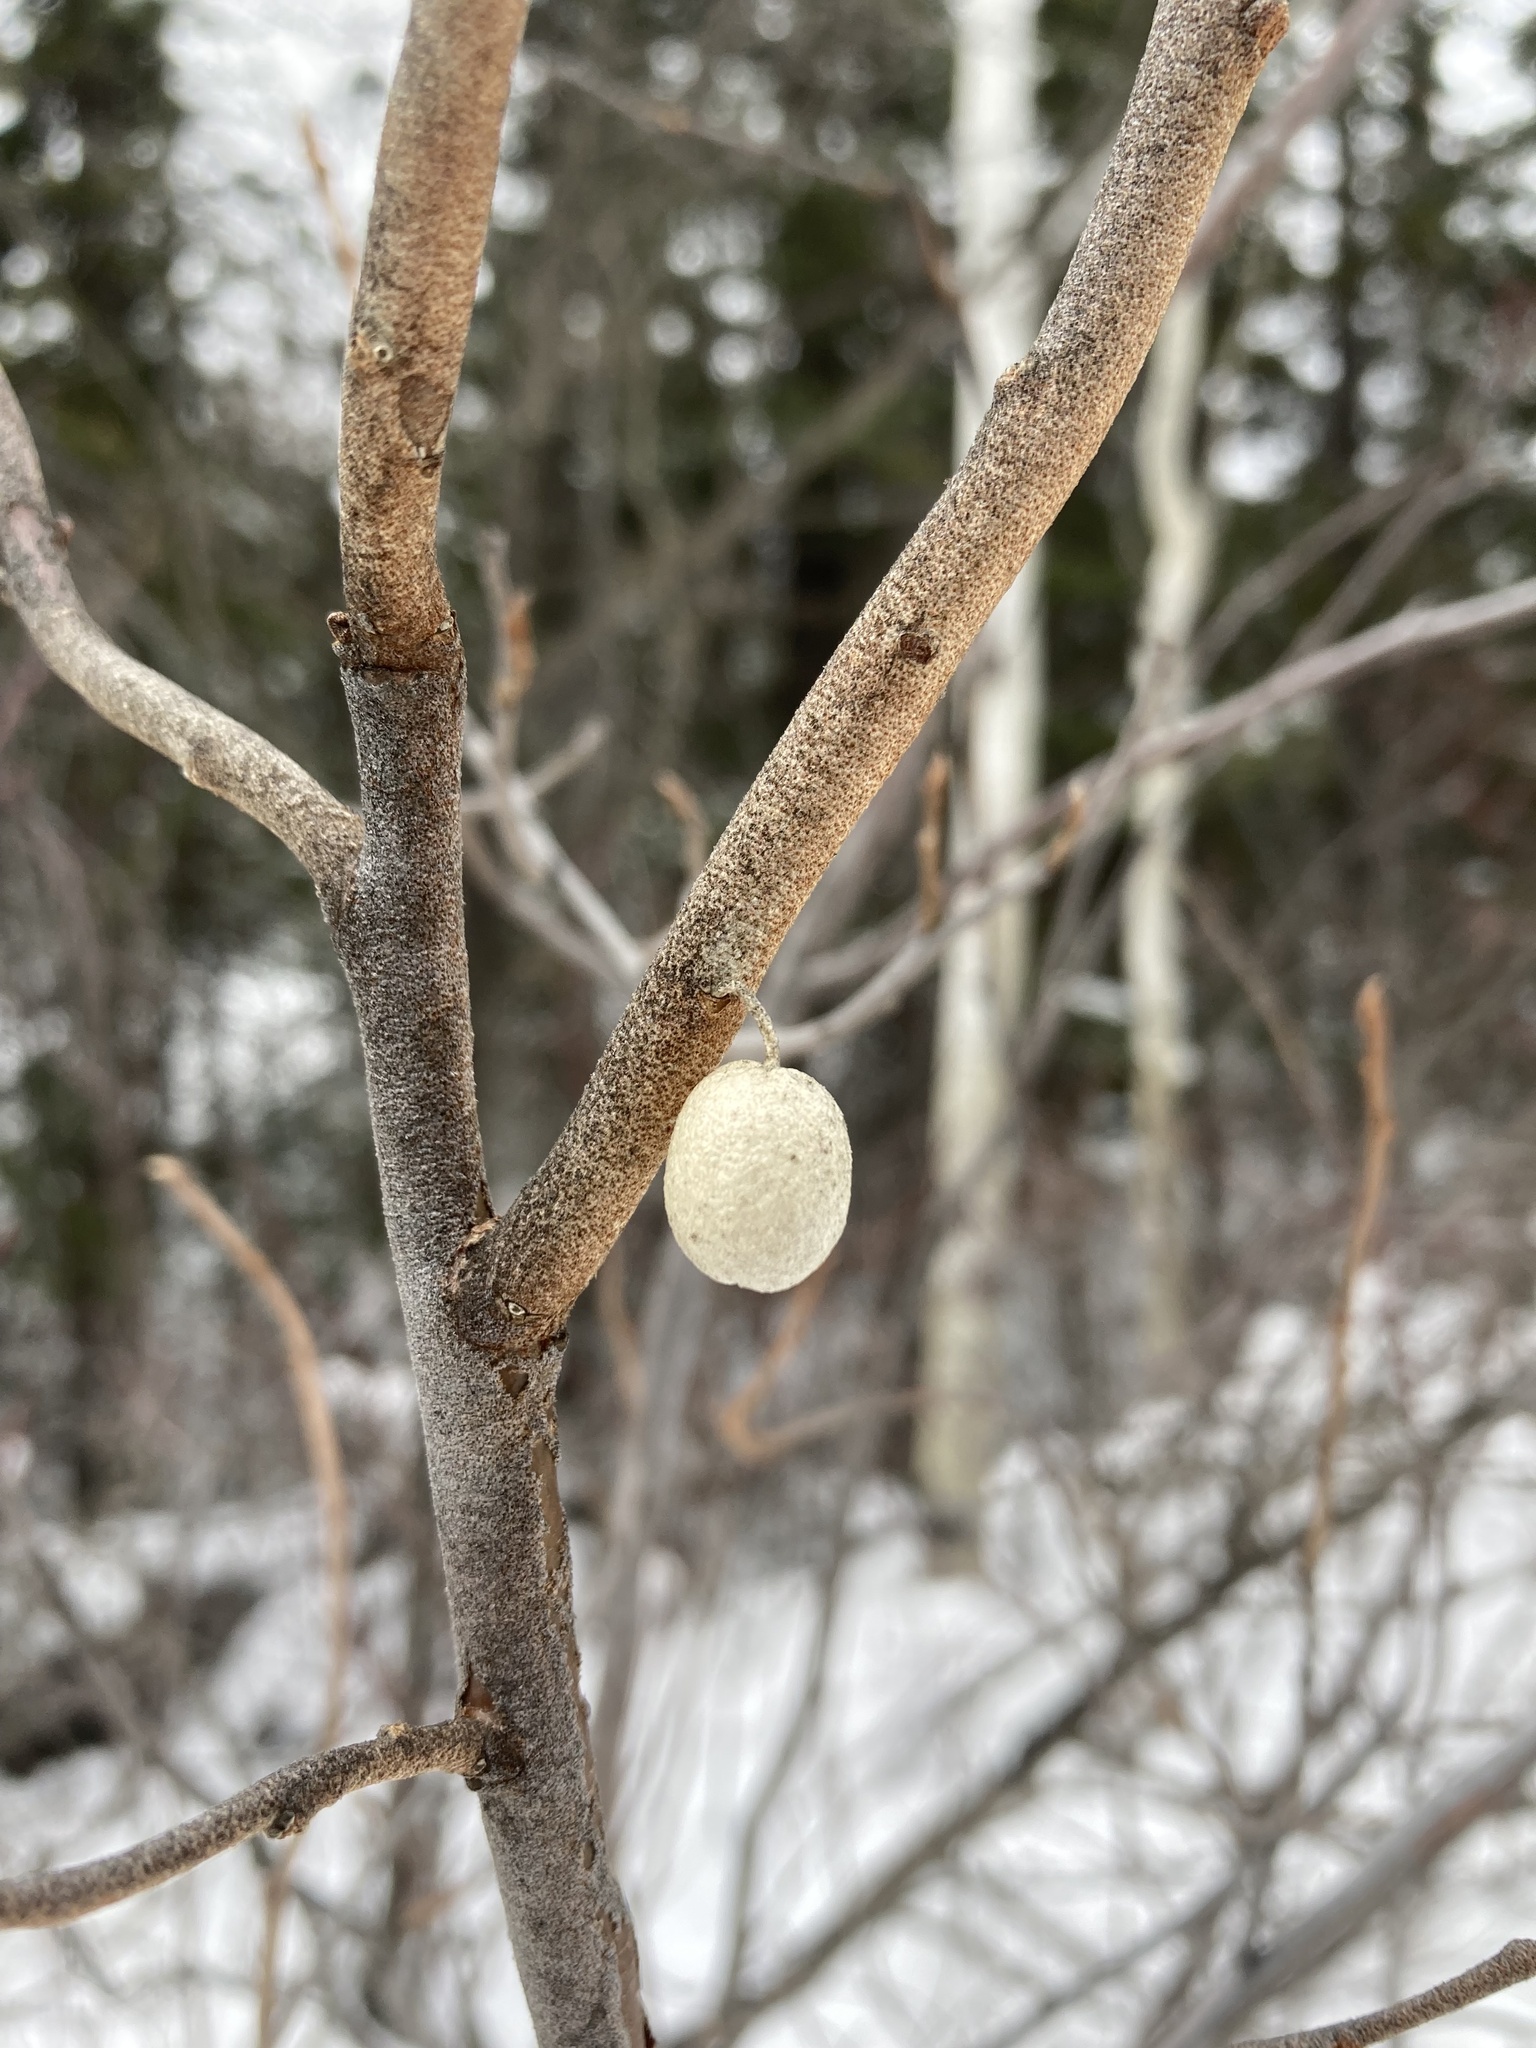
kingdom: Plantae
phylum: Tracheophyta
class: Magnoliopsida
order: Rosales
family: Elaeagnaceae
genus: Elaeagnus
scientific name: Elaeagnus commutata
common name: Silverberry
